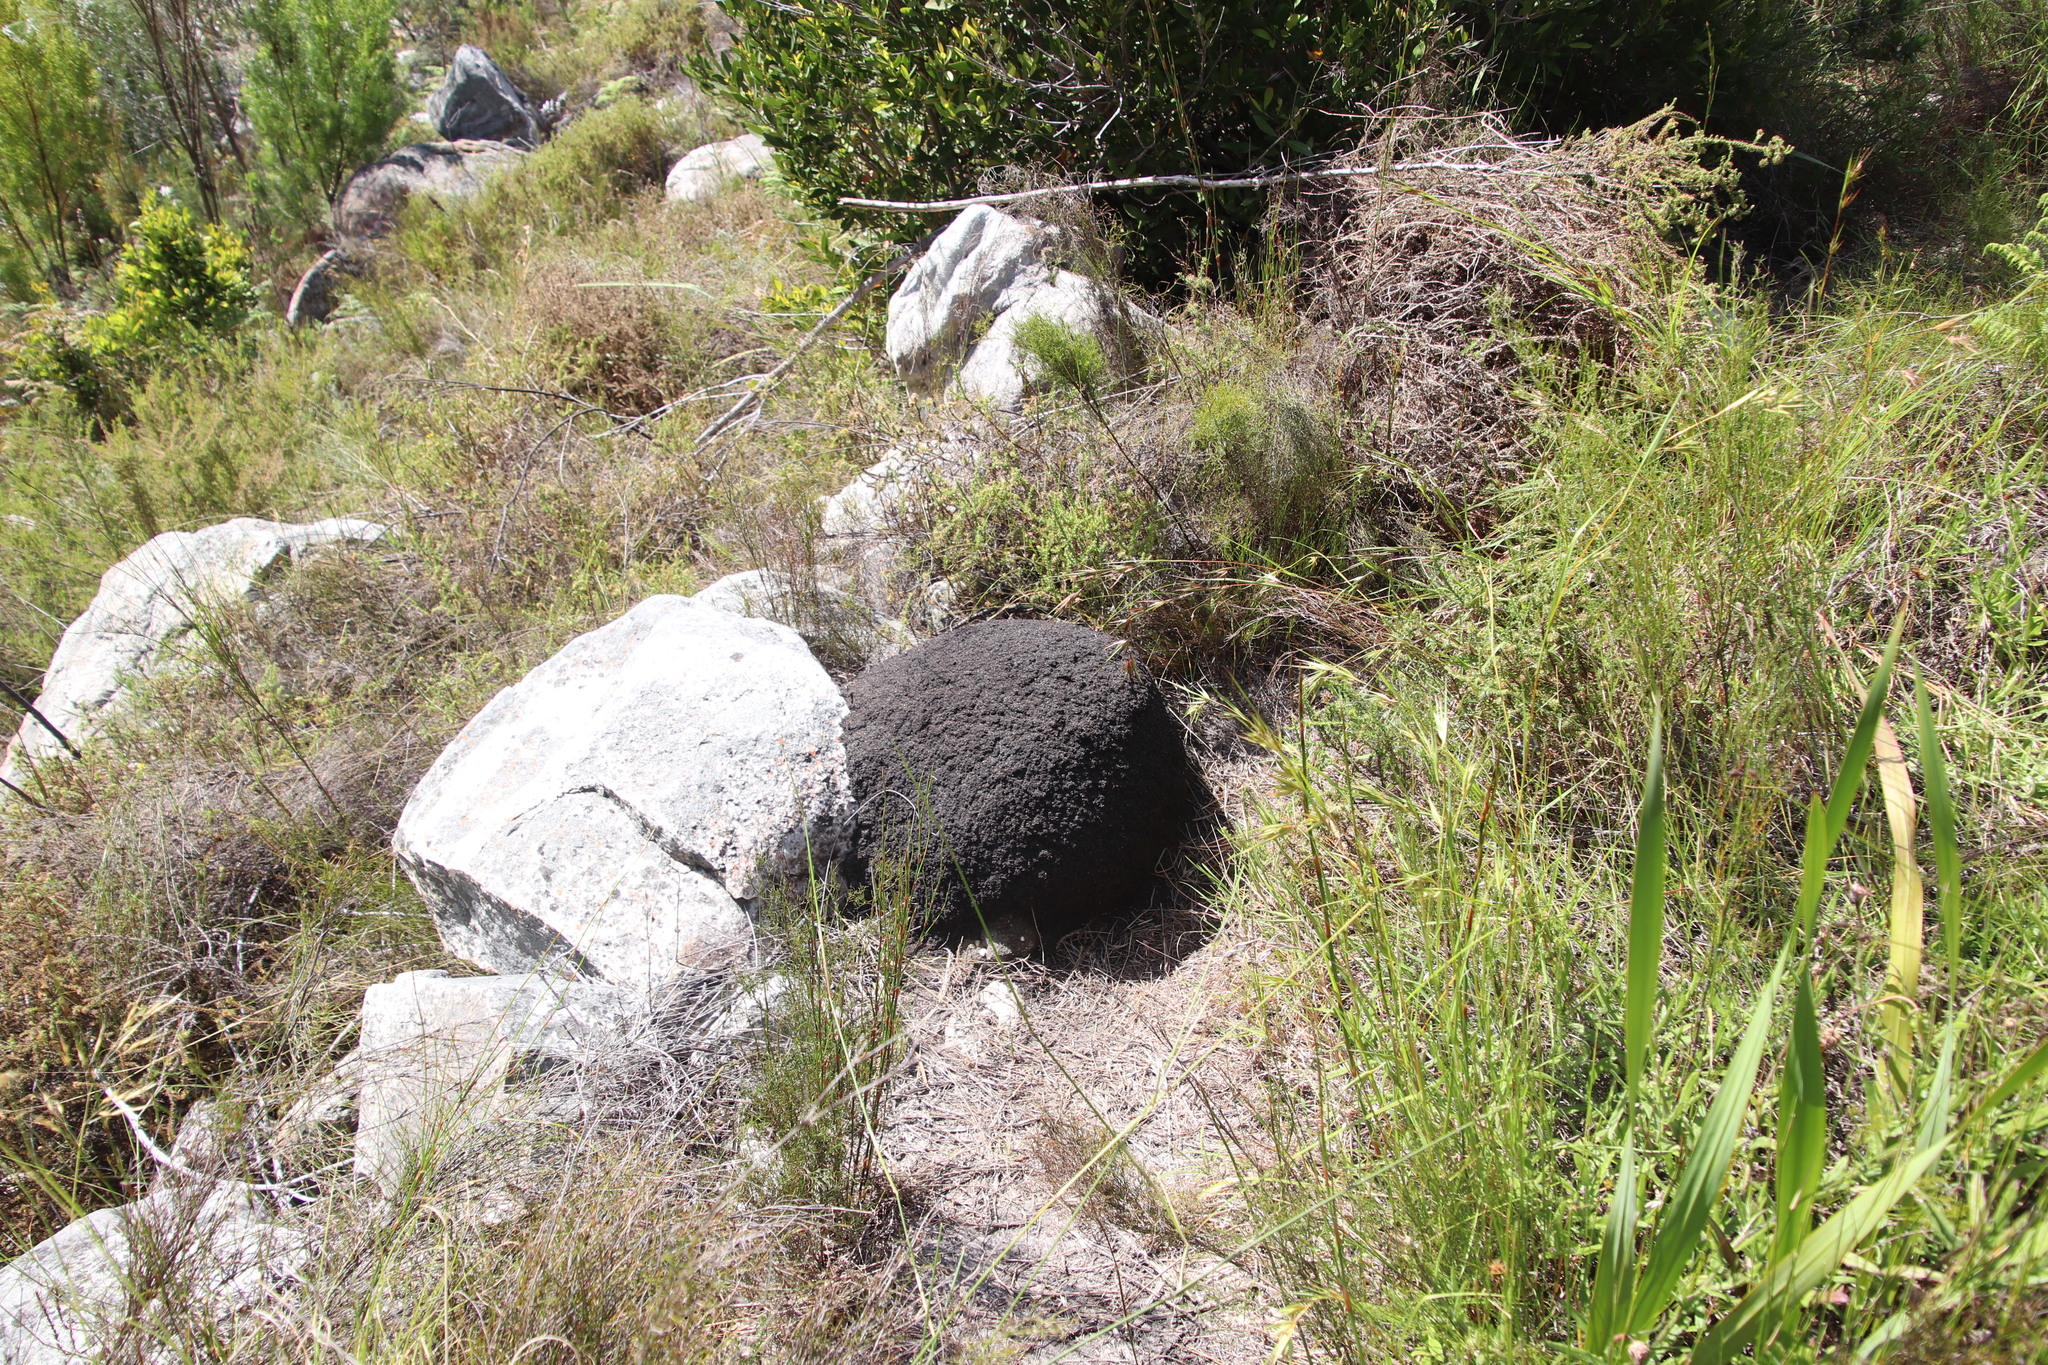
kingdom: Animalia
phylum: Arthropoda
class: Insecta
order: Blattodea
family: Termitidae
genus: Amitermes
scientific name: Amitermes hastatus
